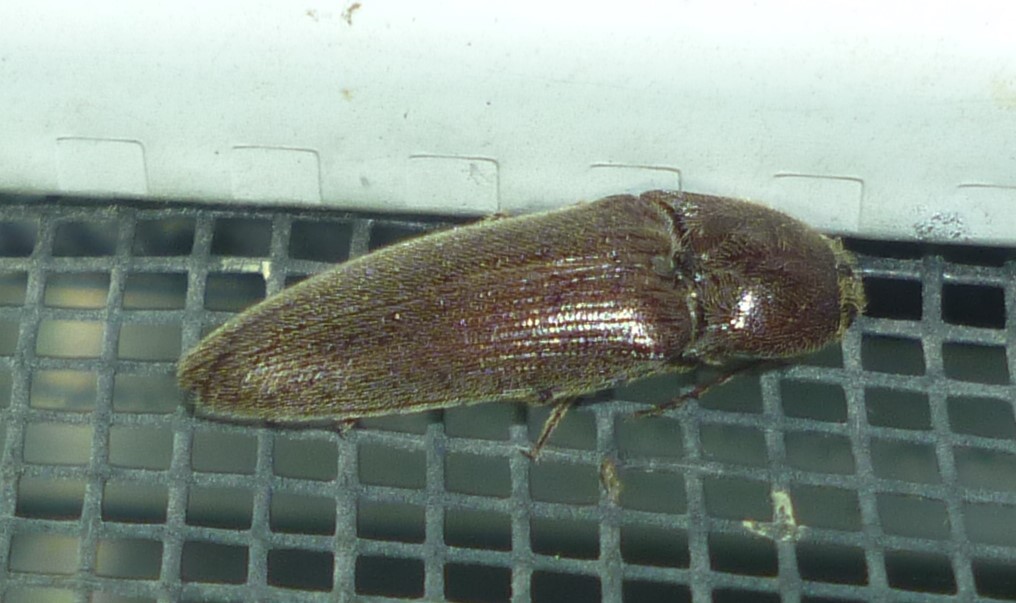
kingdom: Animalia
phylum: Arthropoda
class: Insecta
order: Coleoptera
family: Elateridae
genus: Melanotus
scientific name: Melanotus
